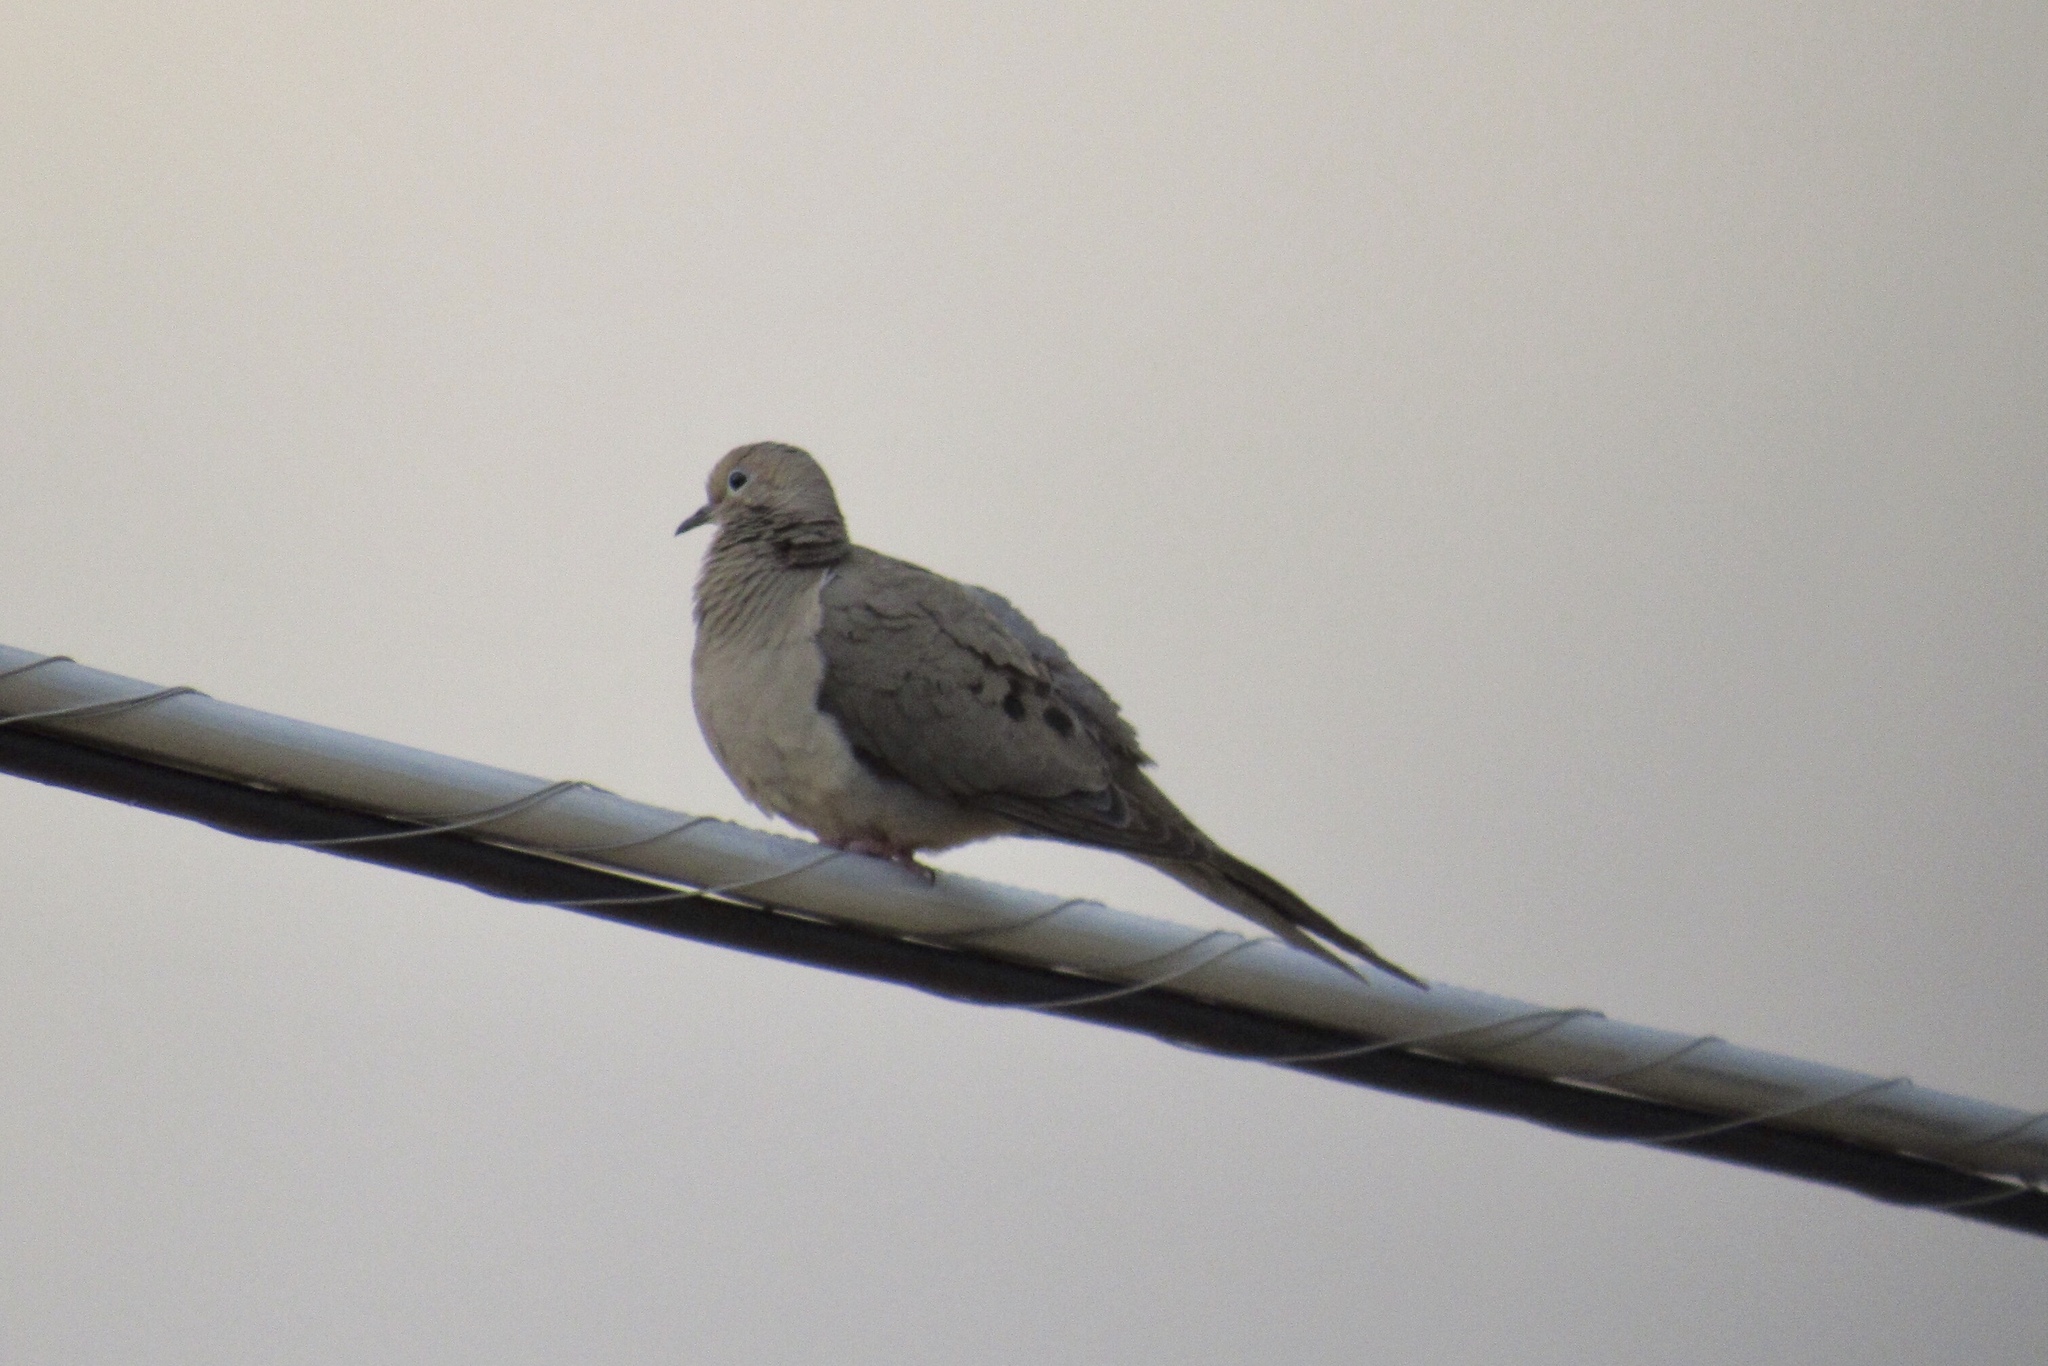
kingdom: Animalia
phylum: Chordata
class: Aves
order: Columbiformes
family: Columbidae
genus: Zenaida
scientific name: Zenaida macroura
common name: Mourning dove
